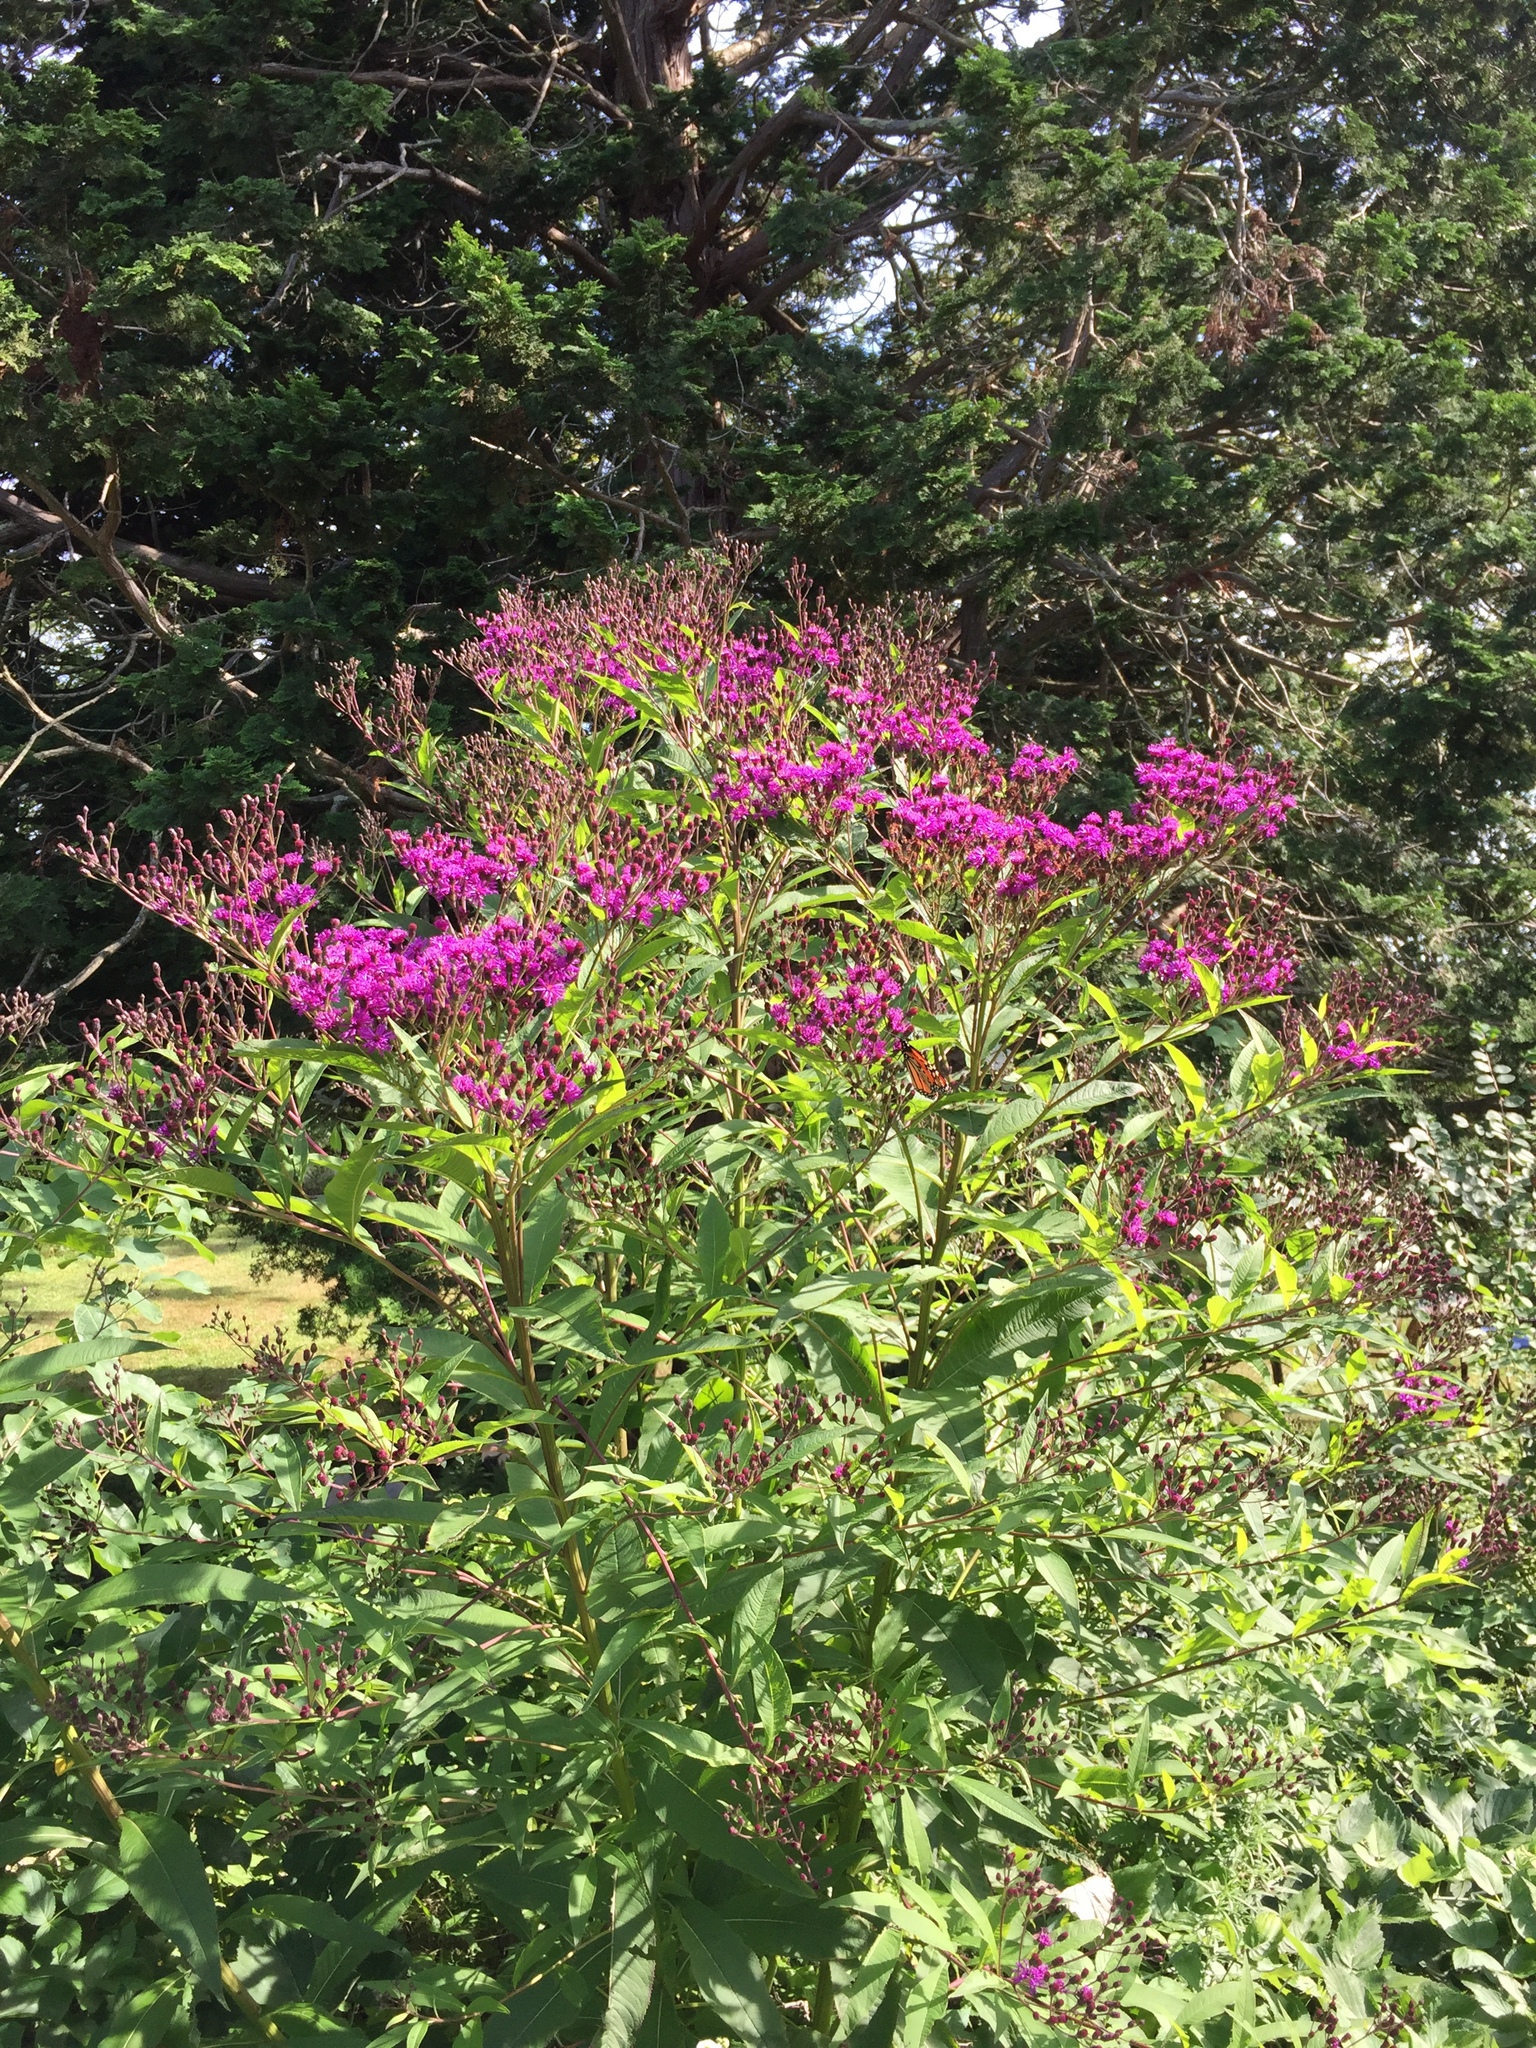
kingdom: Plantae
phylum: Tracheophyta
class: Magnoliopsida
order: Asterales
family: Asteraceae
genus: Vernonia
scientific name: Vernonia noveboracensis
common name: New york ironweed
